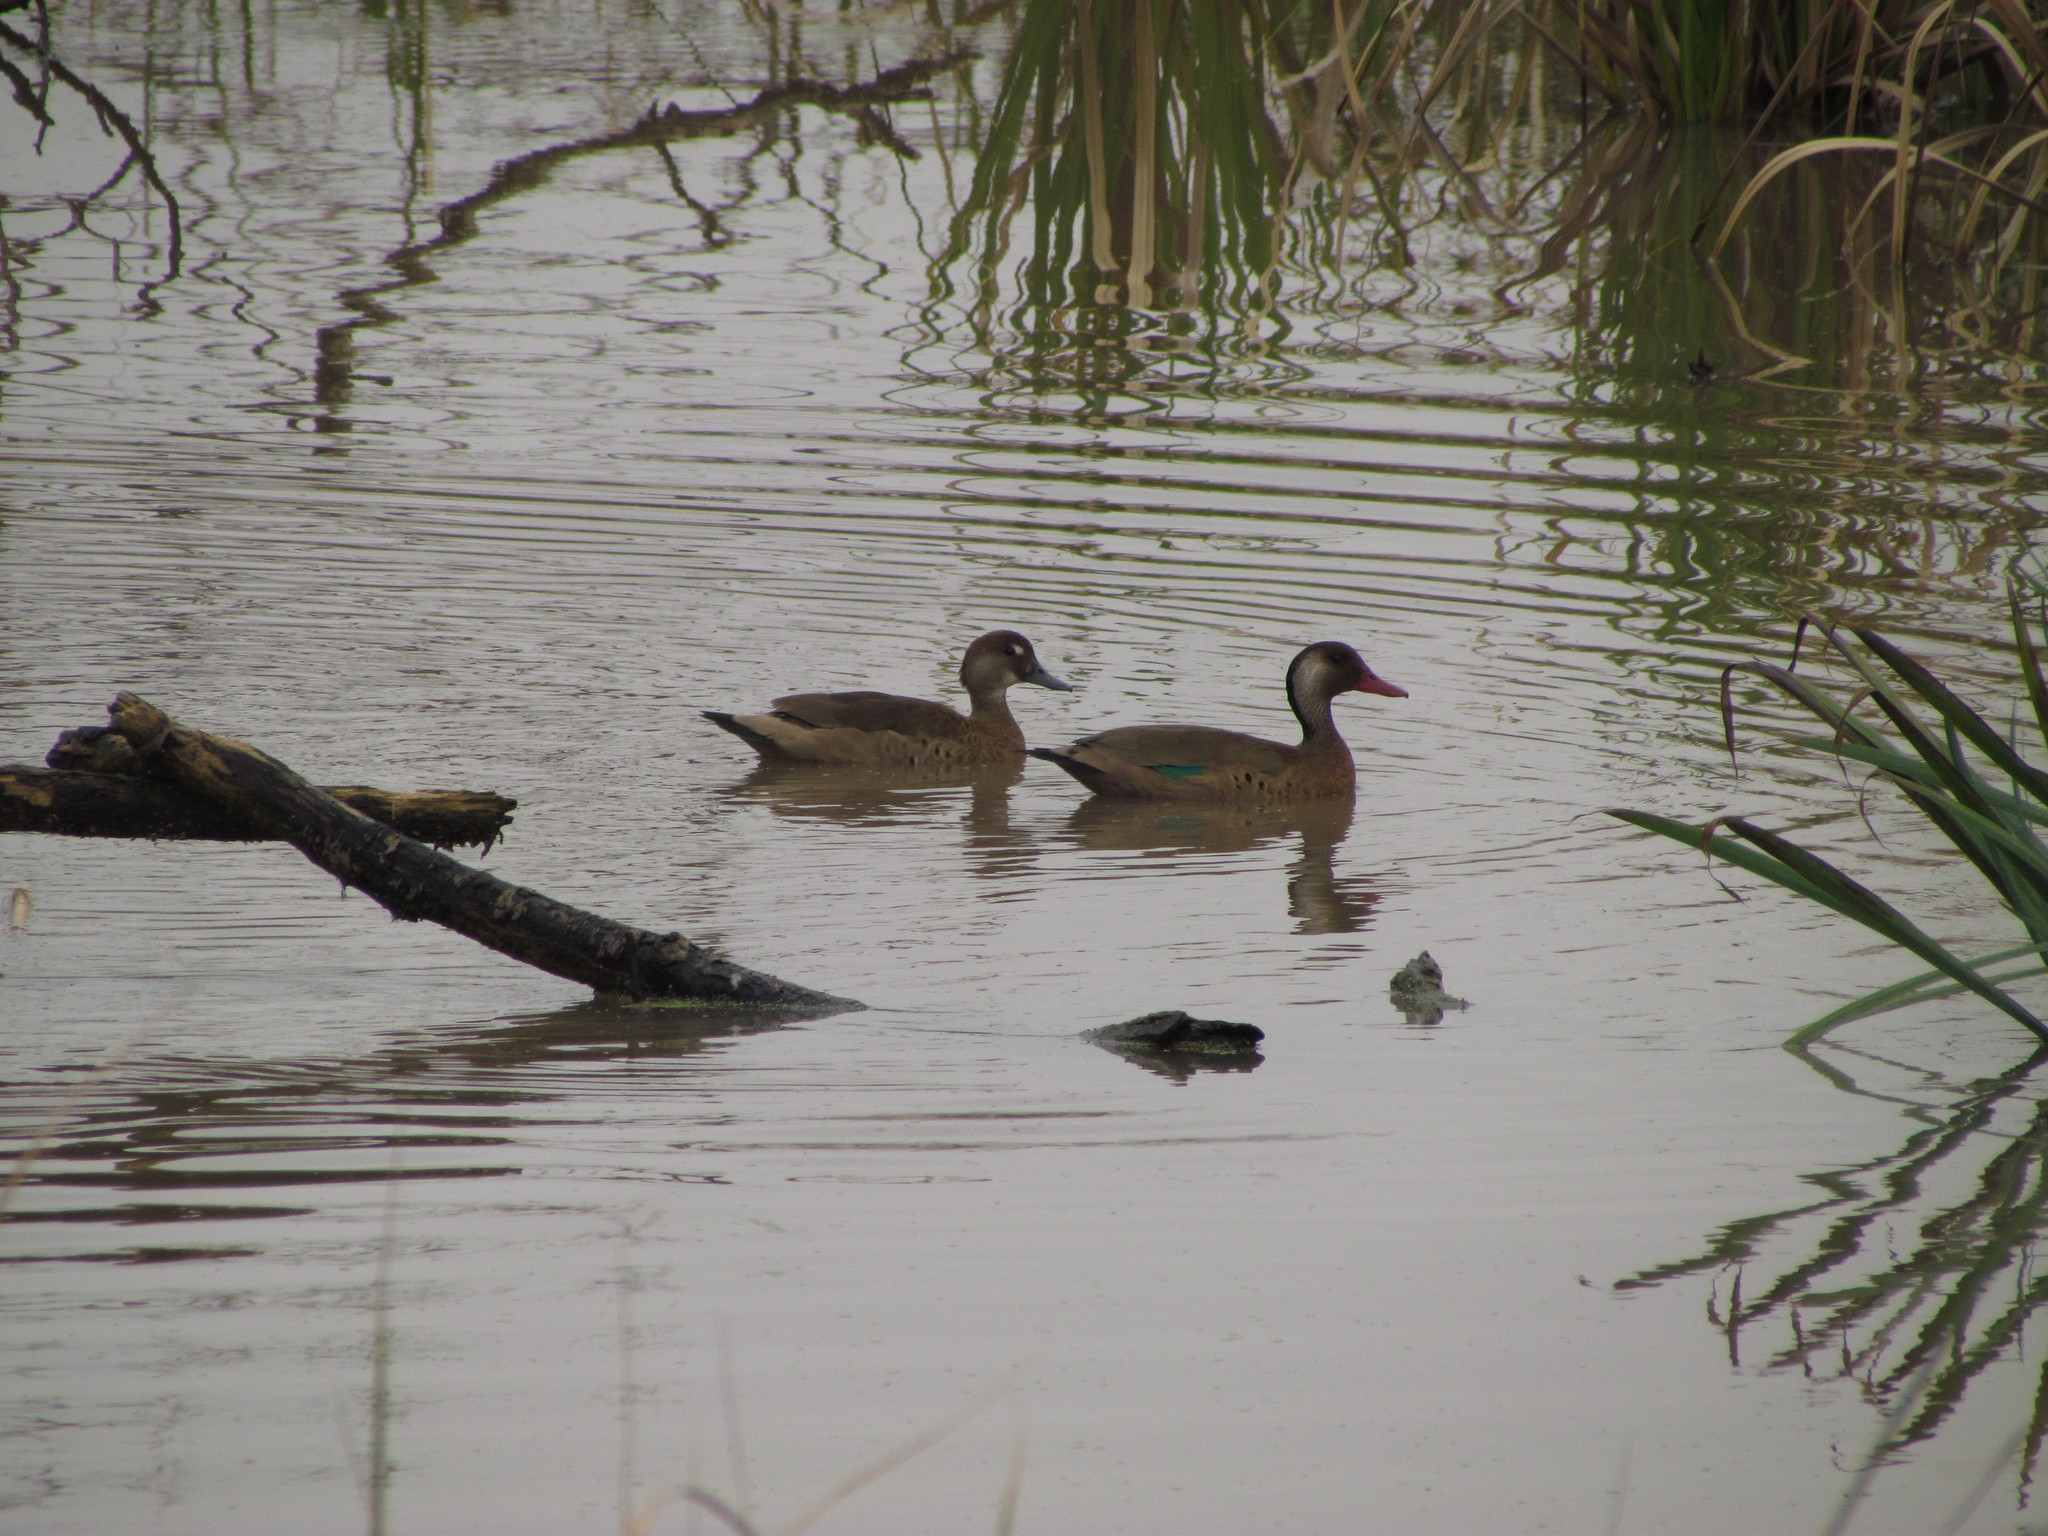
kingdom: Animalia
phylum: Chordata
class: Aves
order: Anseriformes
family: Anatidae
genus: Amazonetta
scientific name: Amazonetta brasiliensis
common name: Brazilian teal
